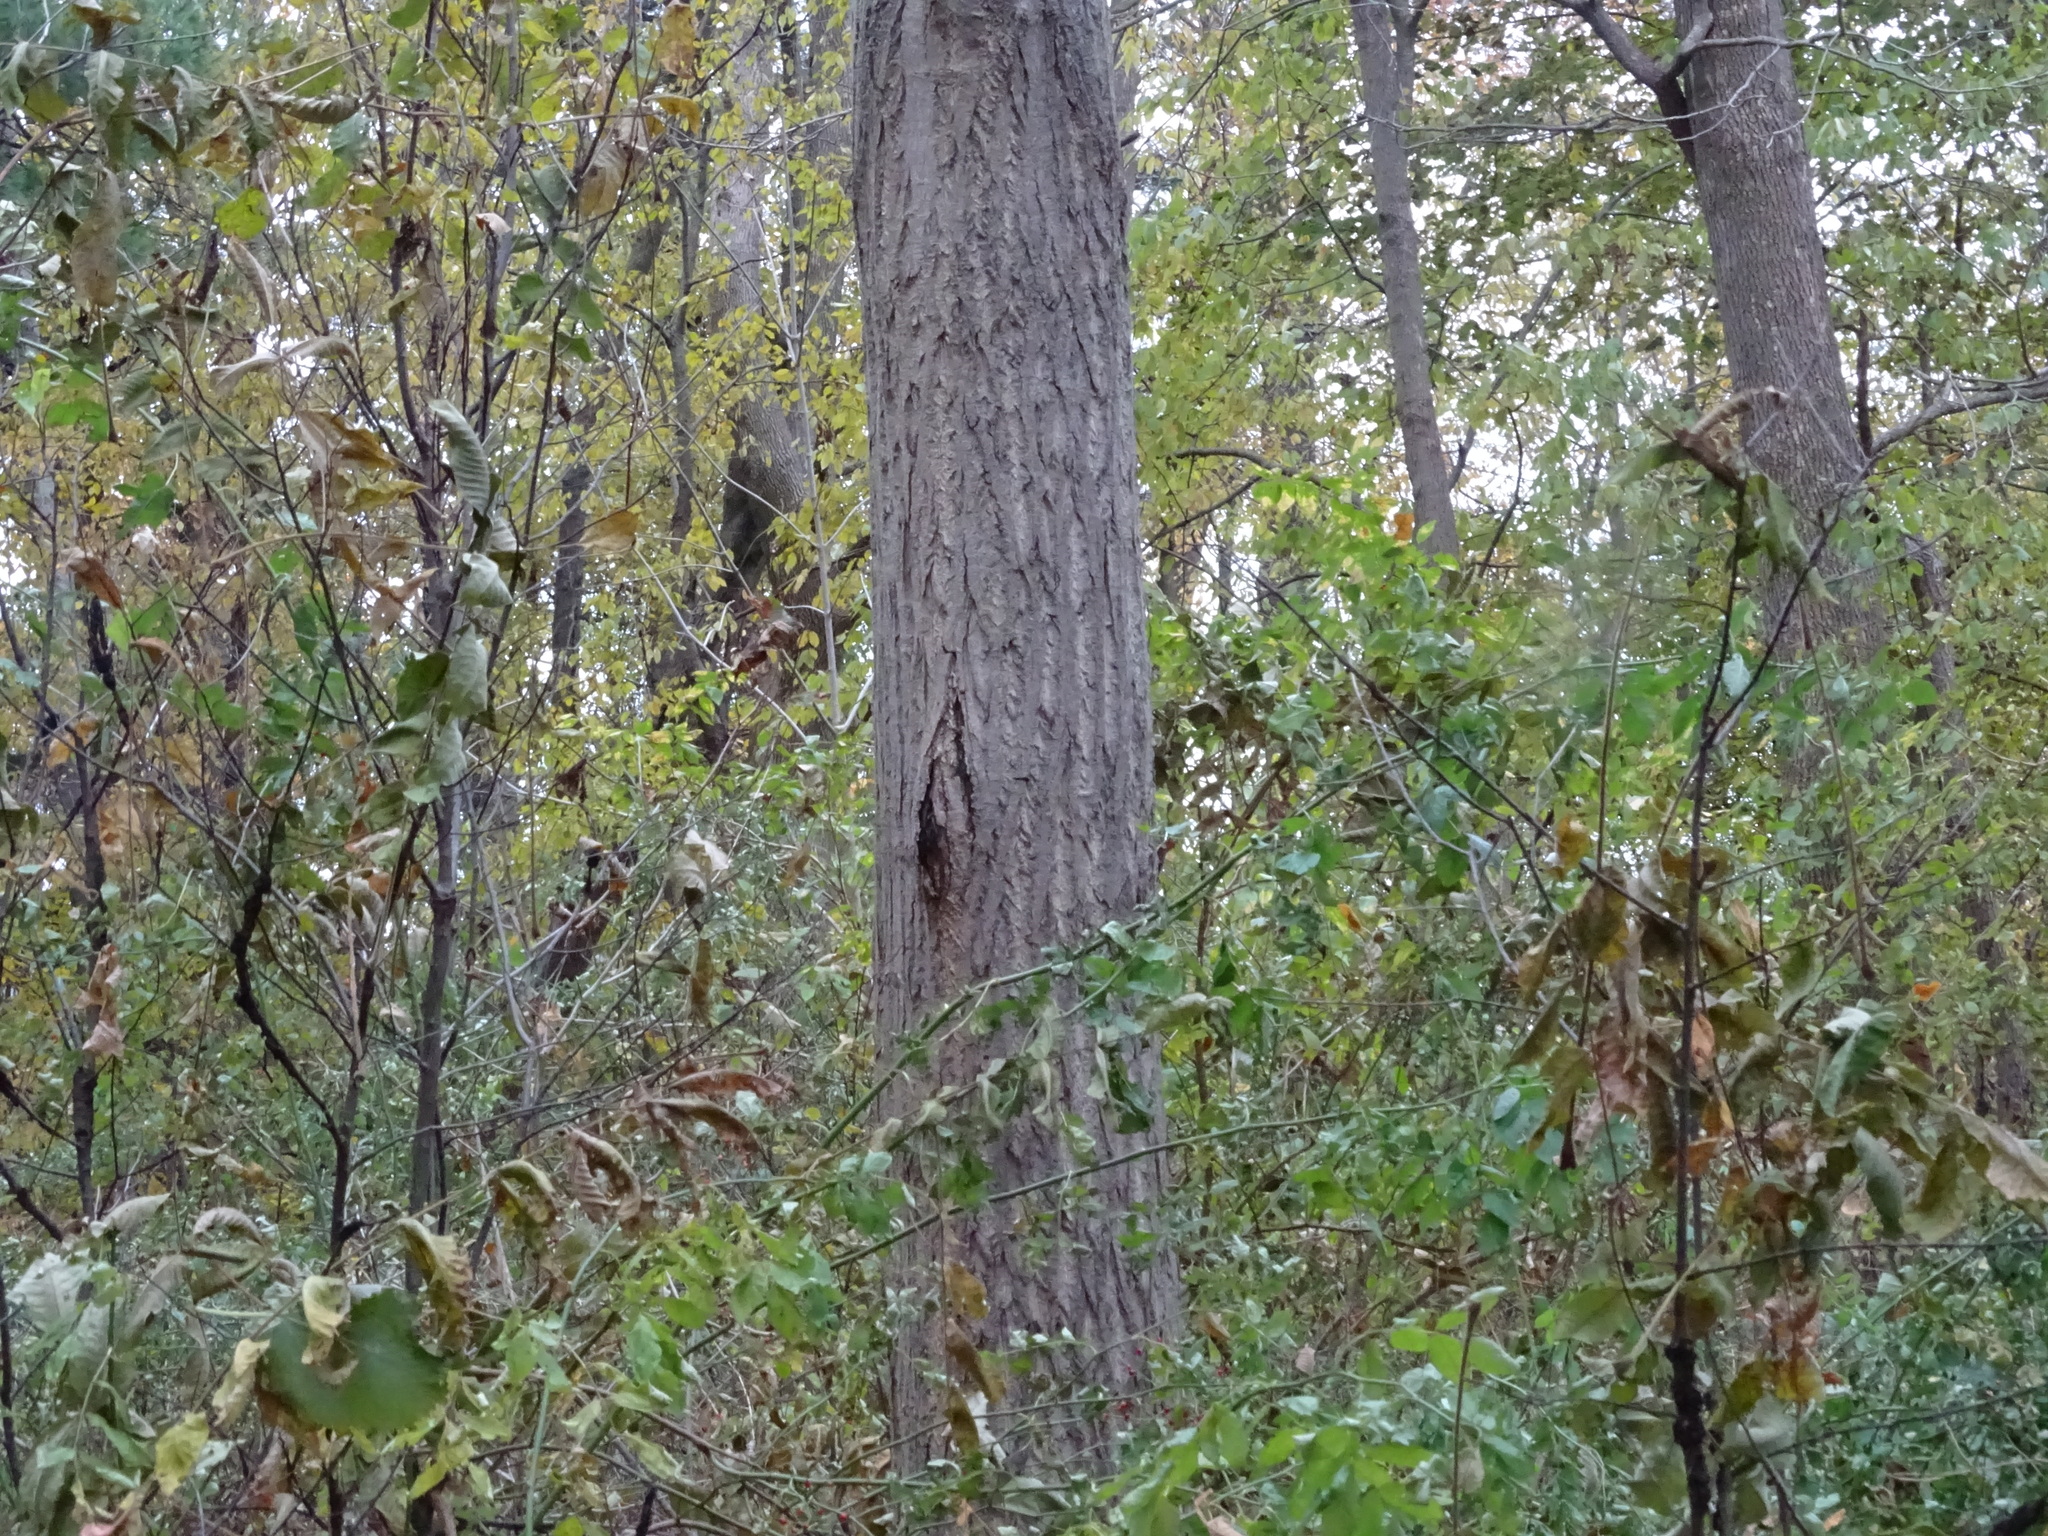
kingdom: Plantae
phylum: Tracheophyta
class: Magnoliopsida
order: Fagales
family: Juglandaceae
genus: Juglans
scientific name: Juglans cinerea
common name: Butternut
